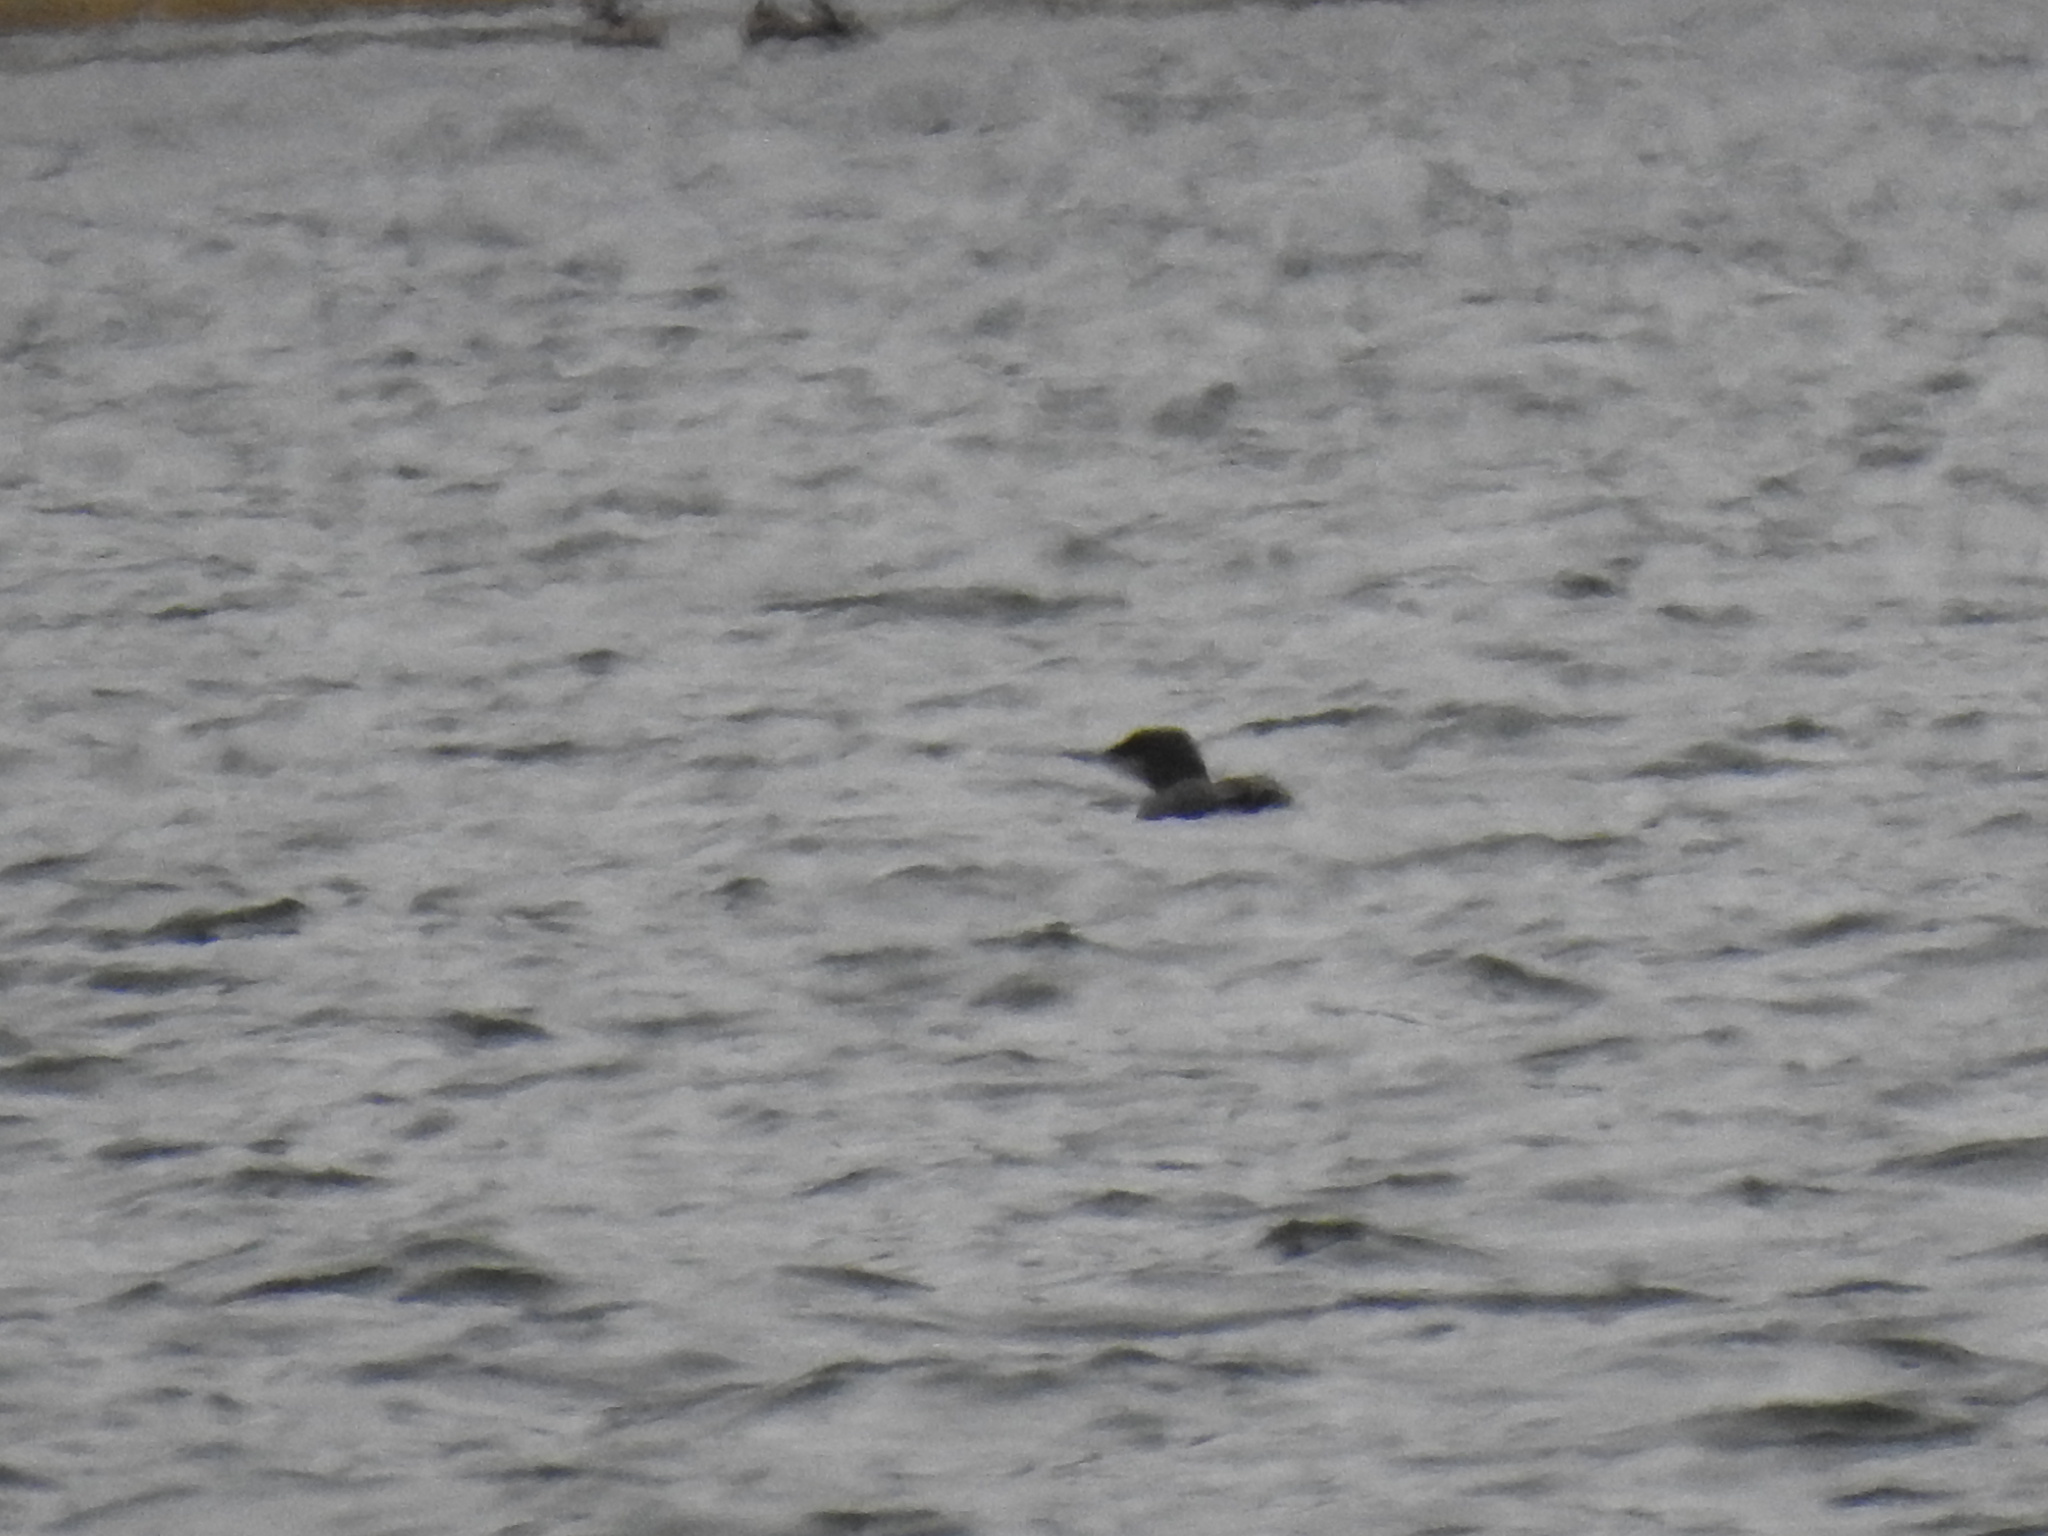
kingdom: Animalia
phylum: Chordata
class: Aves
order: Gaviiformes
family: Gaviidae
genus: Gavia
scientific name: Gavia immer
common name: Common loon
